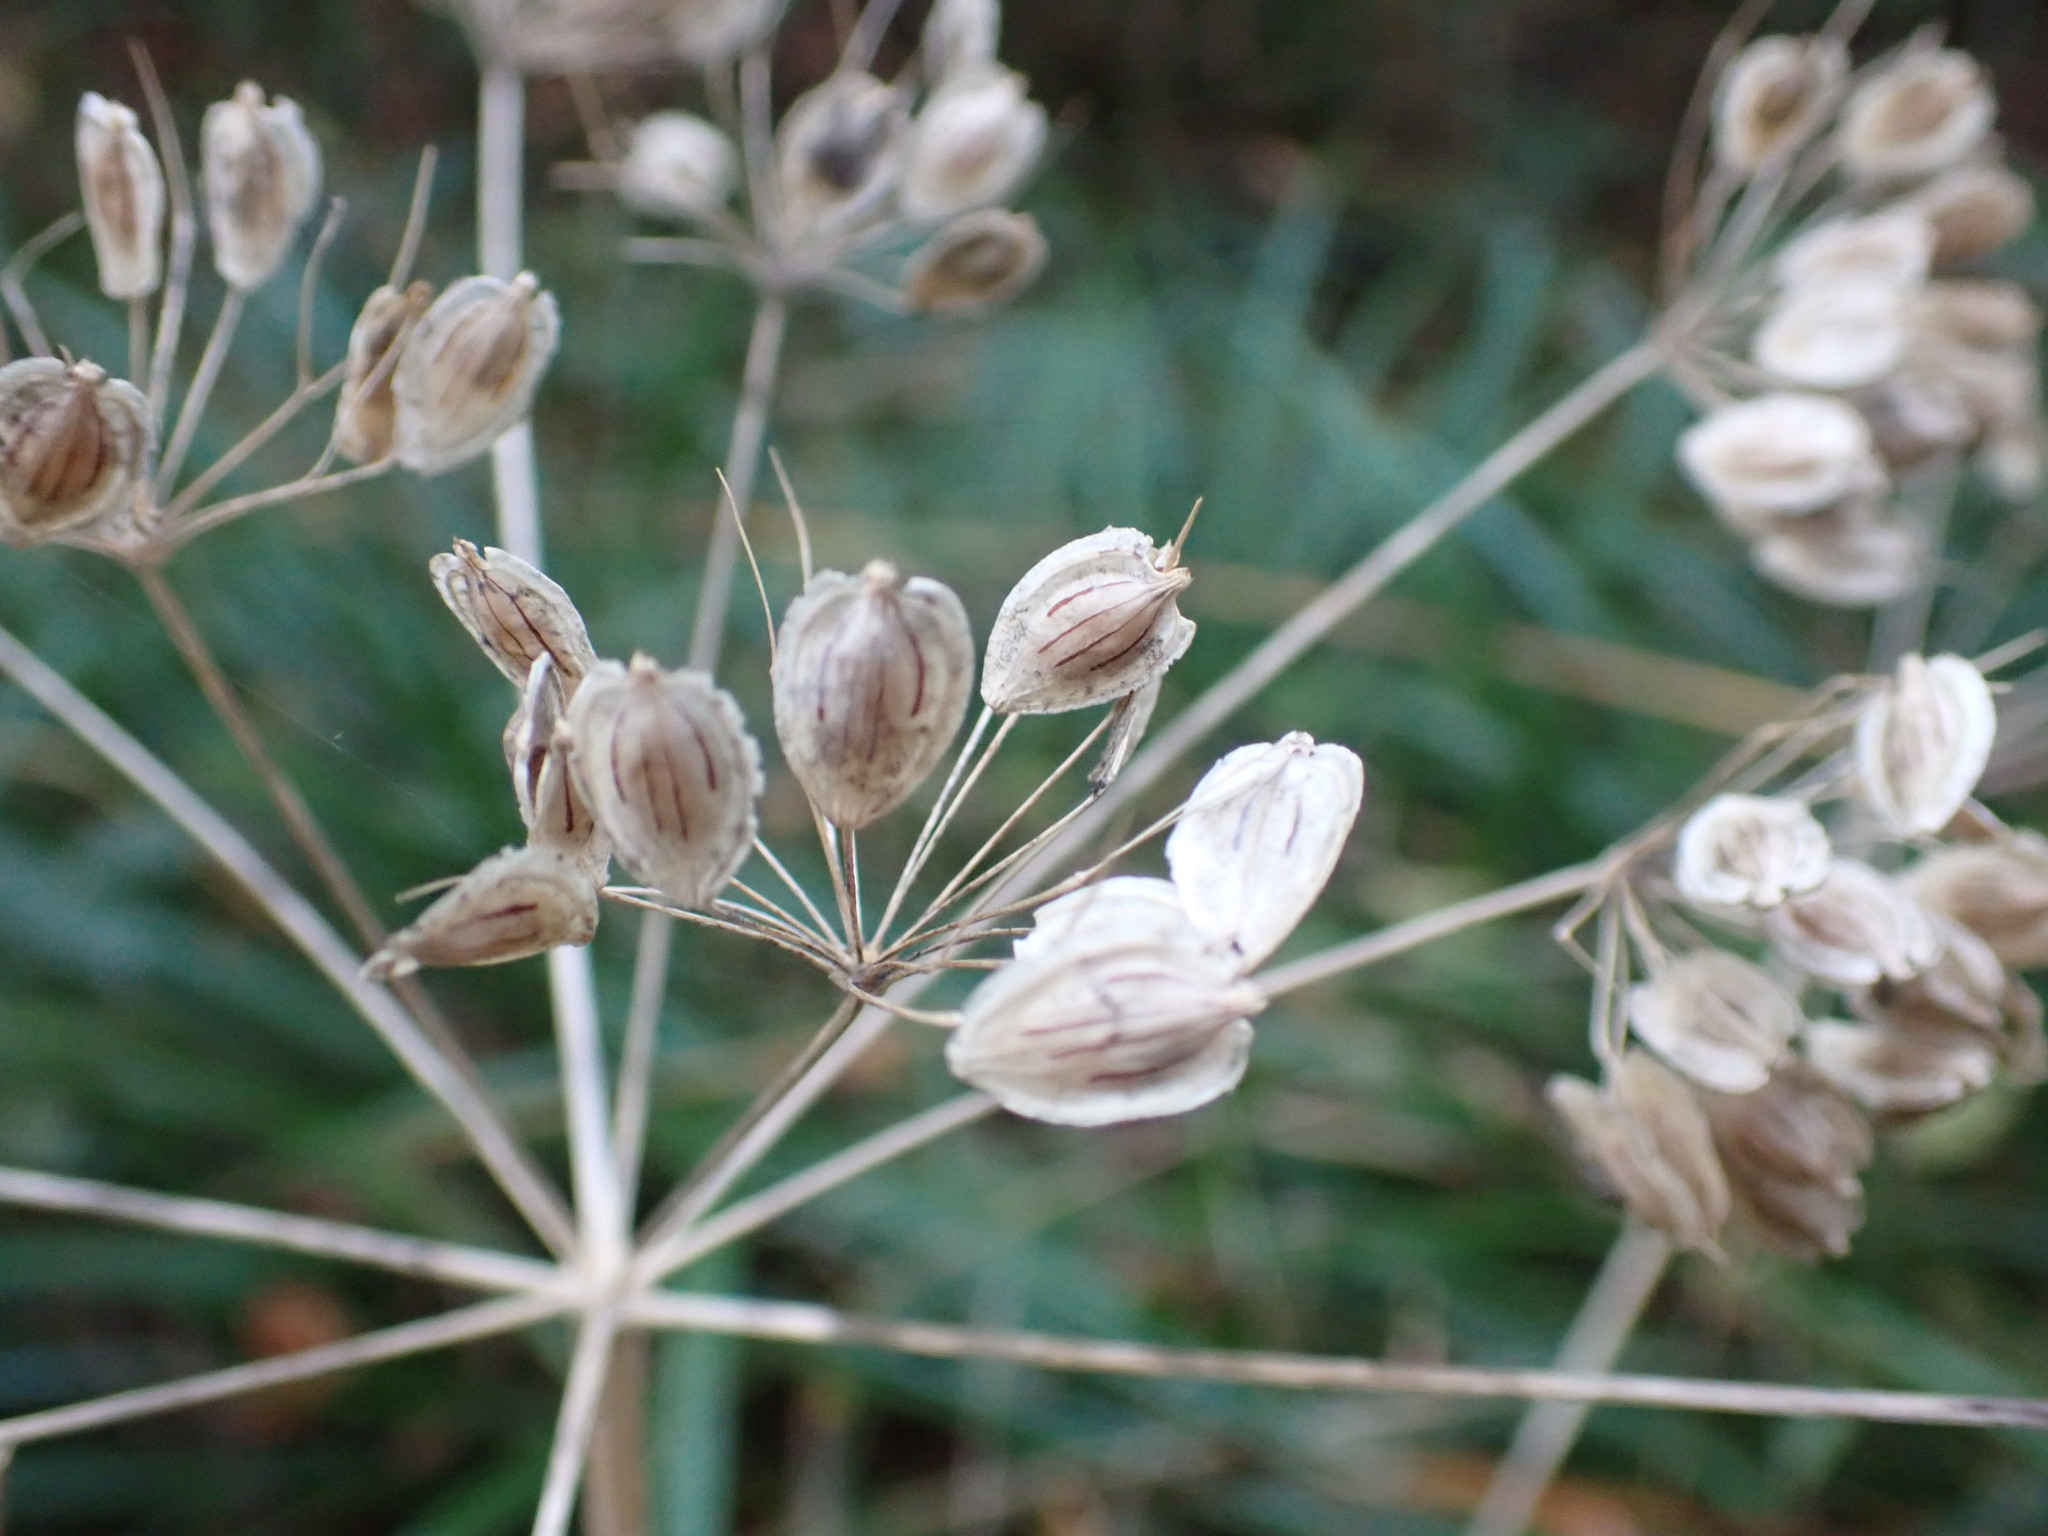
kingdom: Plantae
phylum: Tracheophyta
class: Magnoliopsida
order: Apiales
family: Apiaceae
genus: Heracleum
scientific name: Heracleum sphondylium
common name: Hogweed
